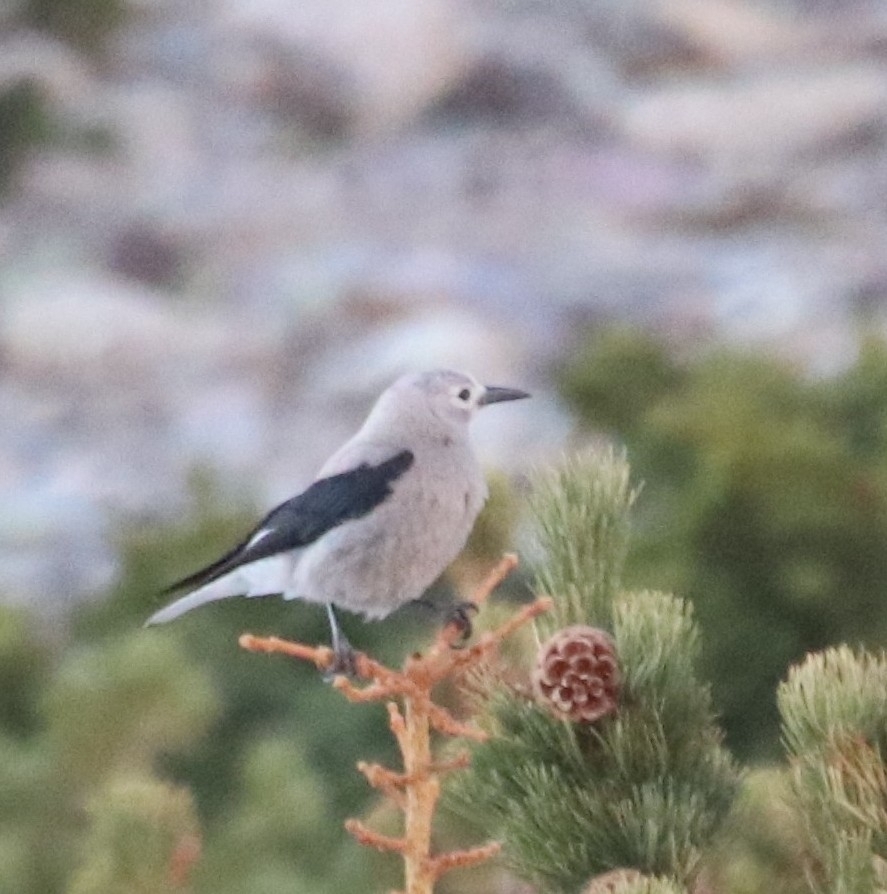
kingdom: Animalia
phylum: Chordata
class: Aves
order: Passeriformes
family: Corvidae
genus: Nucifraga
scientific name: Nucifraga columbiana
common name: Clark's nutcracker
